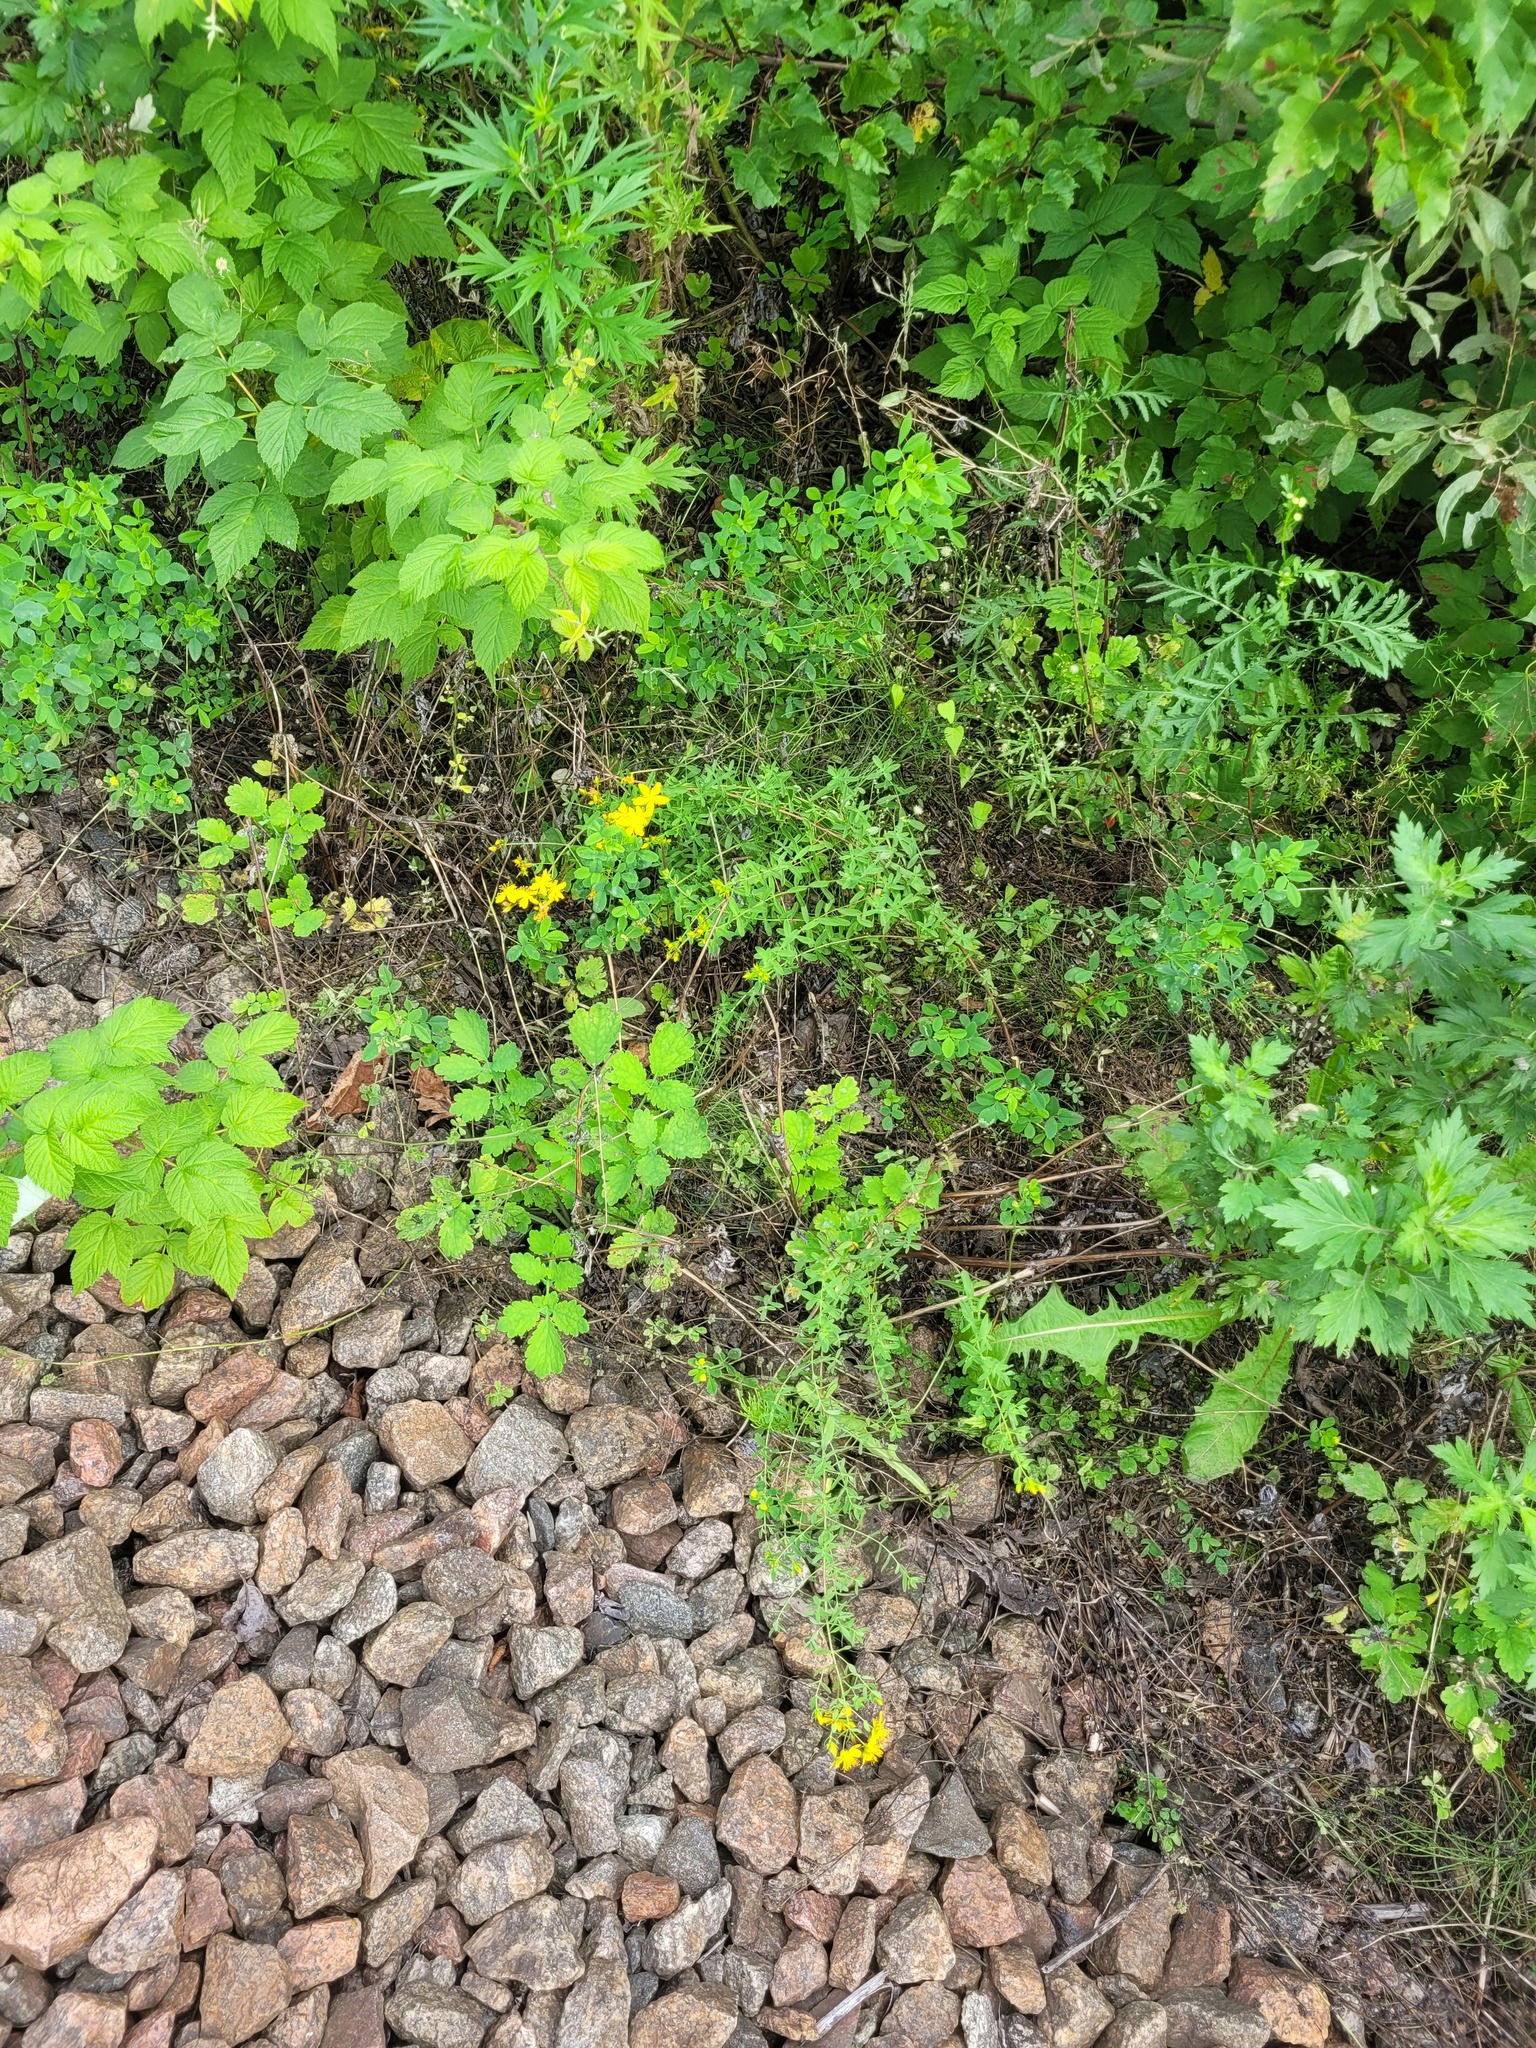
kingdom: Plantae
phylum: Tracheophyta
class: Magnoliopsida
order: Malpighiales
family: Hypericaceae
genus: Hypericum
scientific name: Hypericum perforatum
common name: Common st. johnswort
